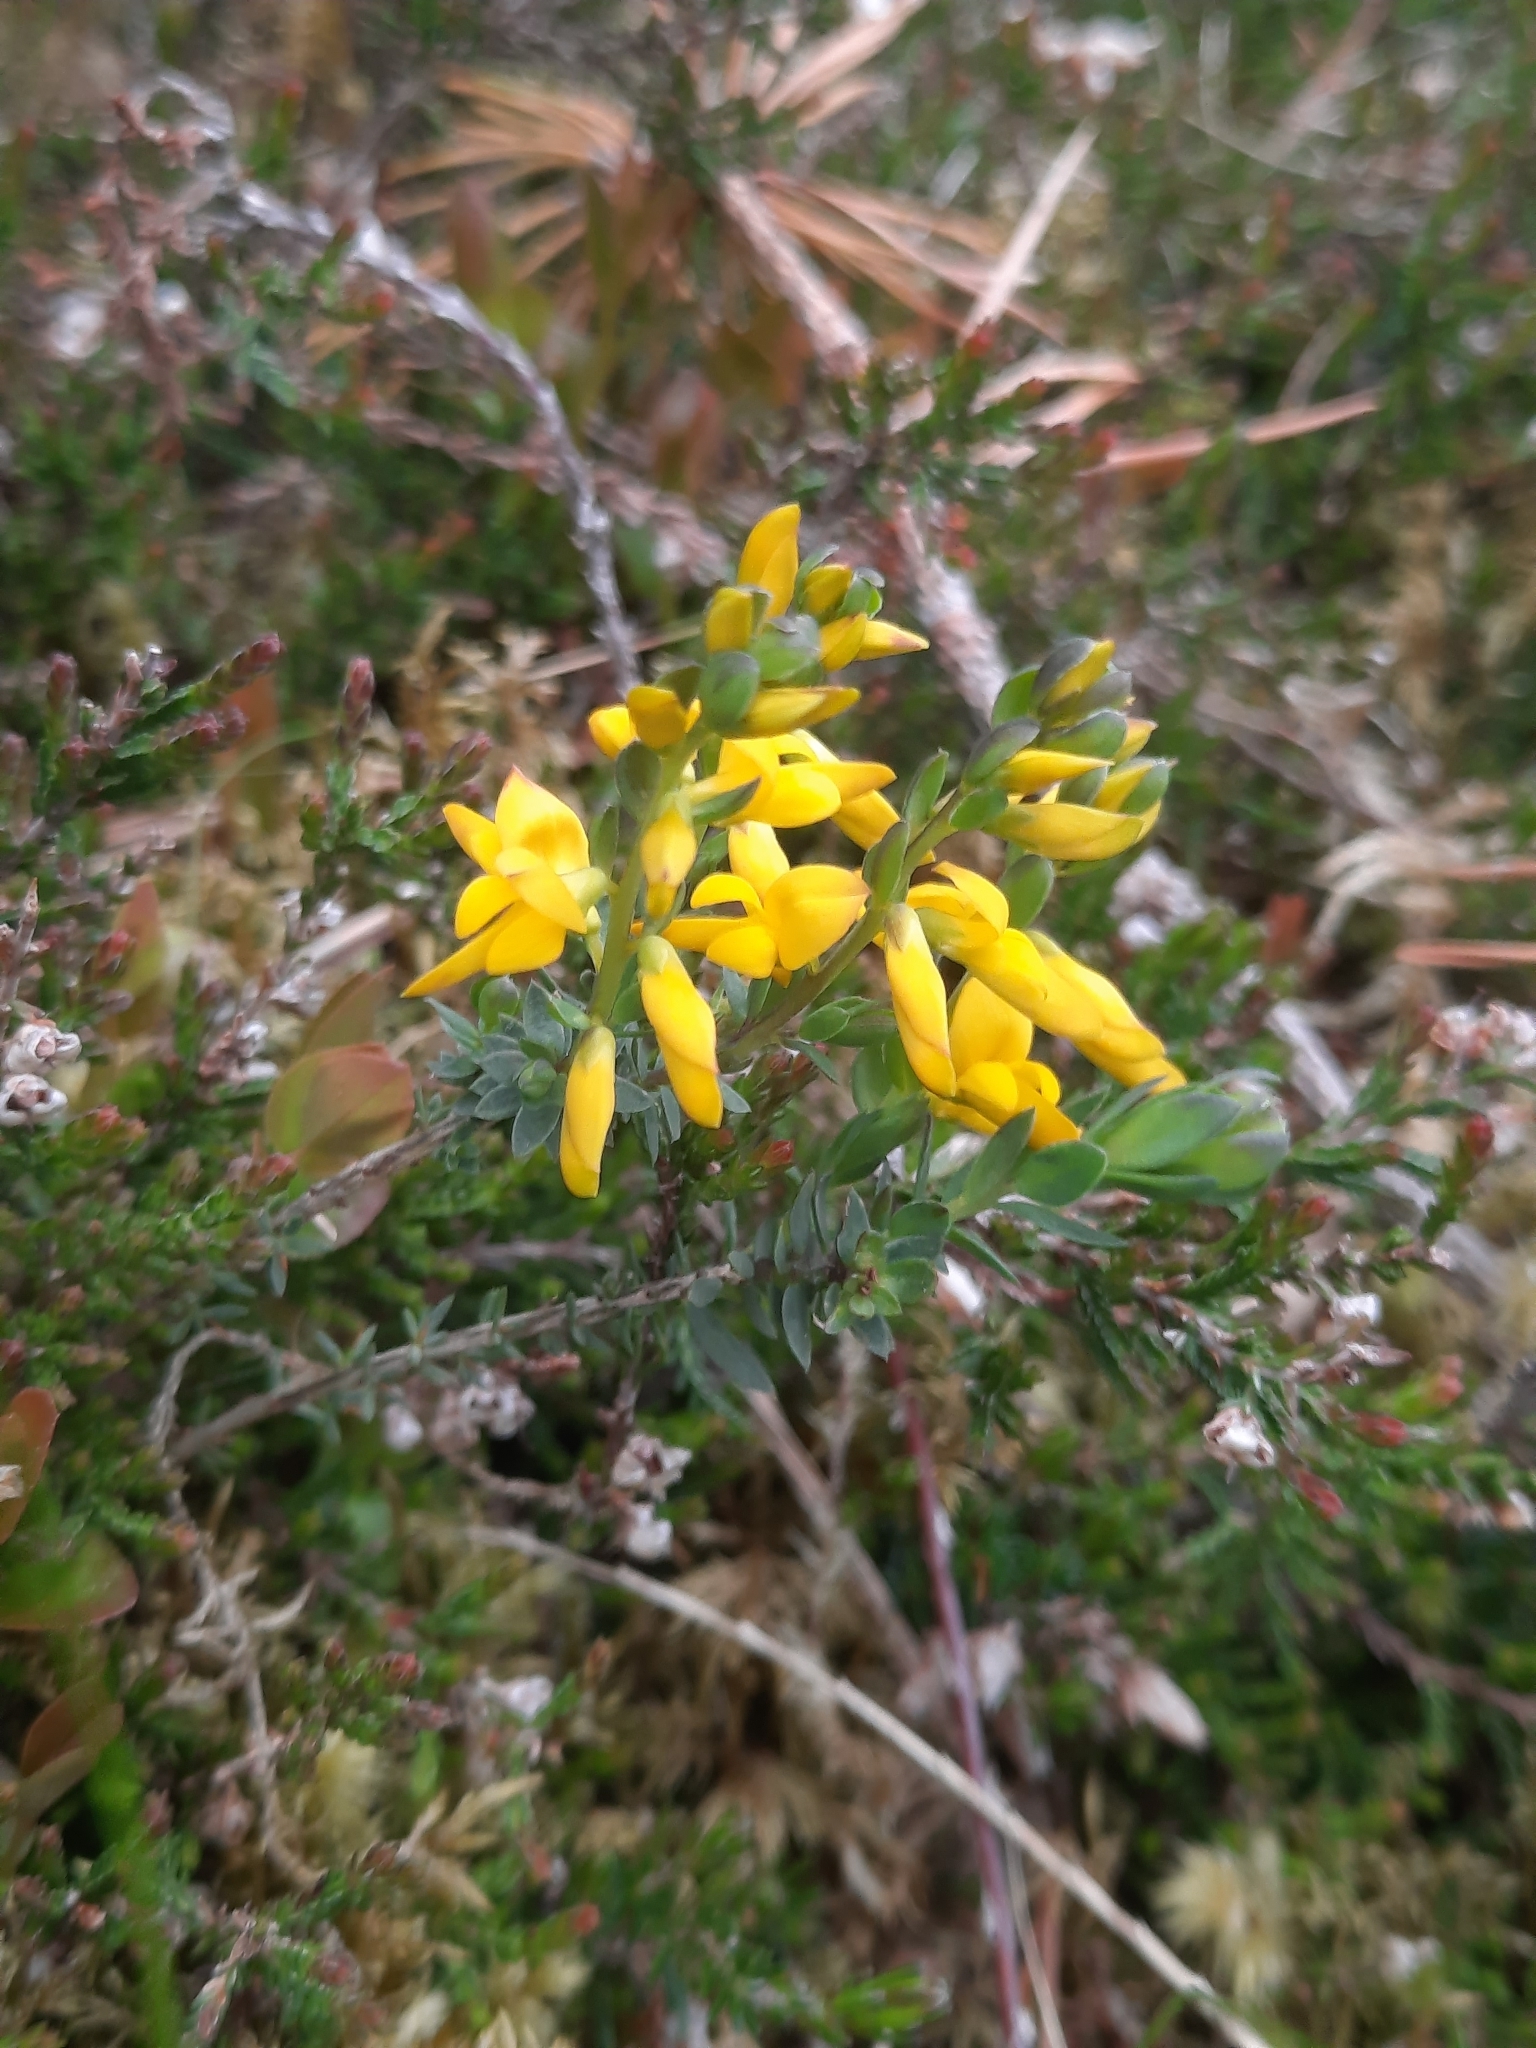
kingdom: Plantae
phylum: Tracheophyta
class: Magnoliopsida
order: Fabales
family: Fabaceae
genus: Genista
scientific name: Genista anglica
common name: Petty whin
